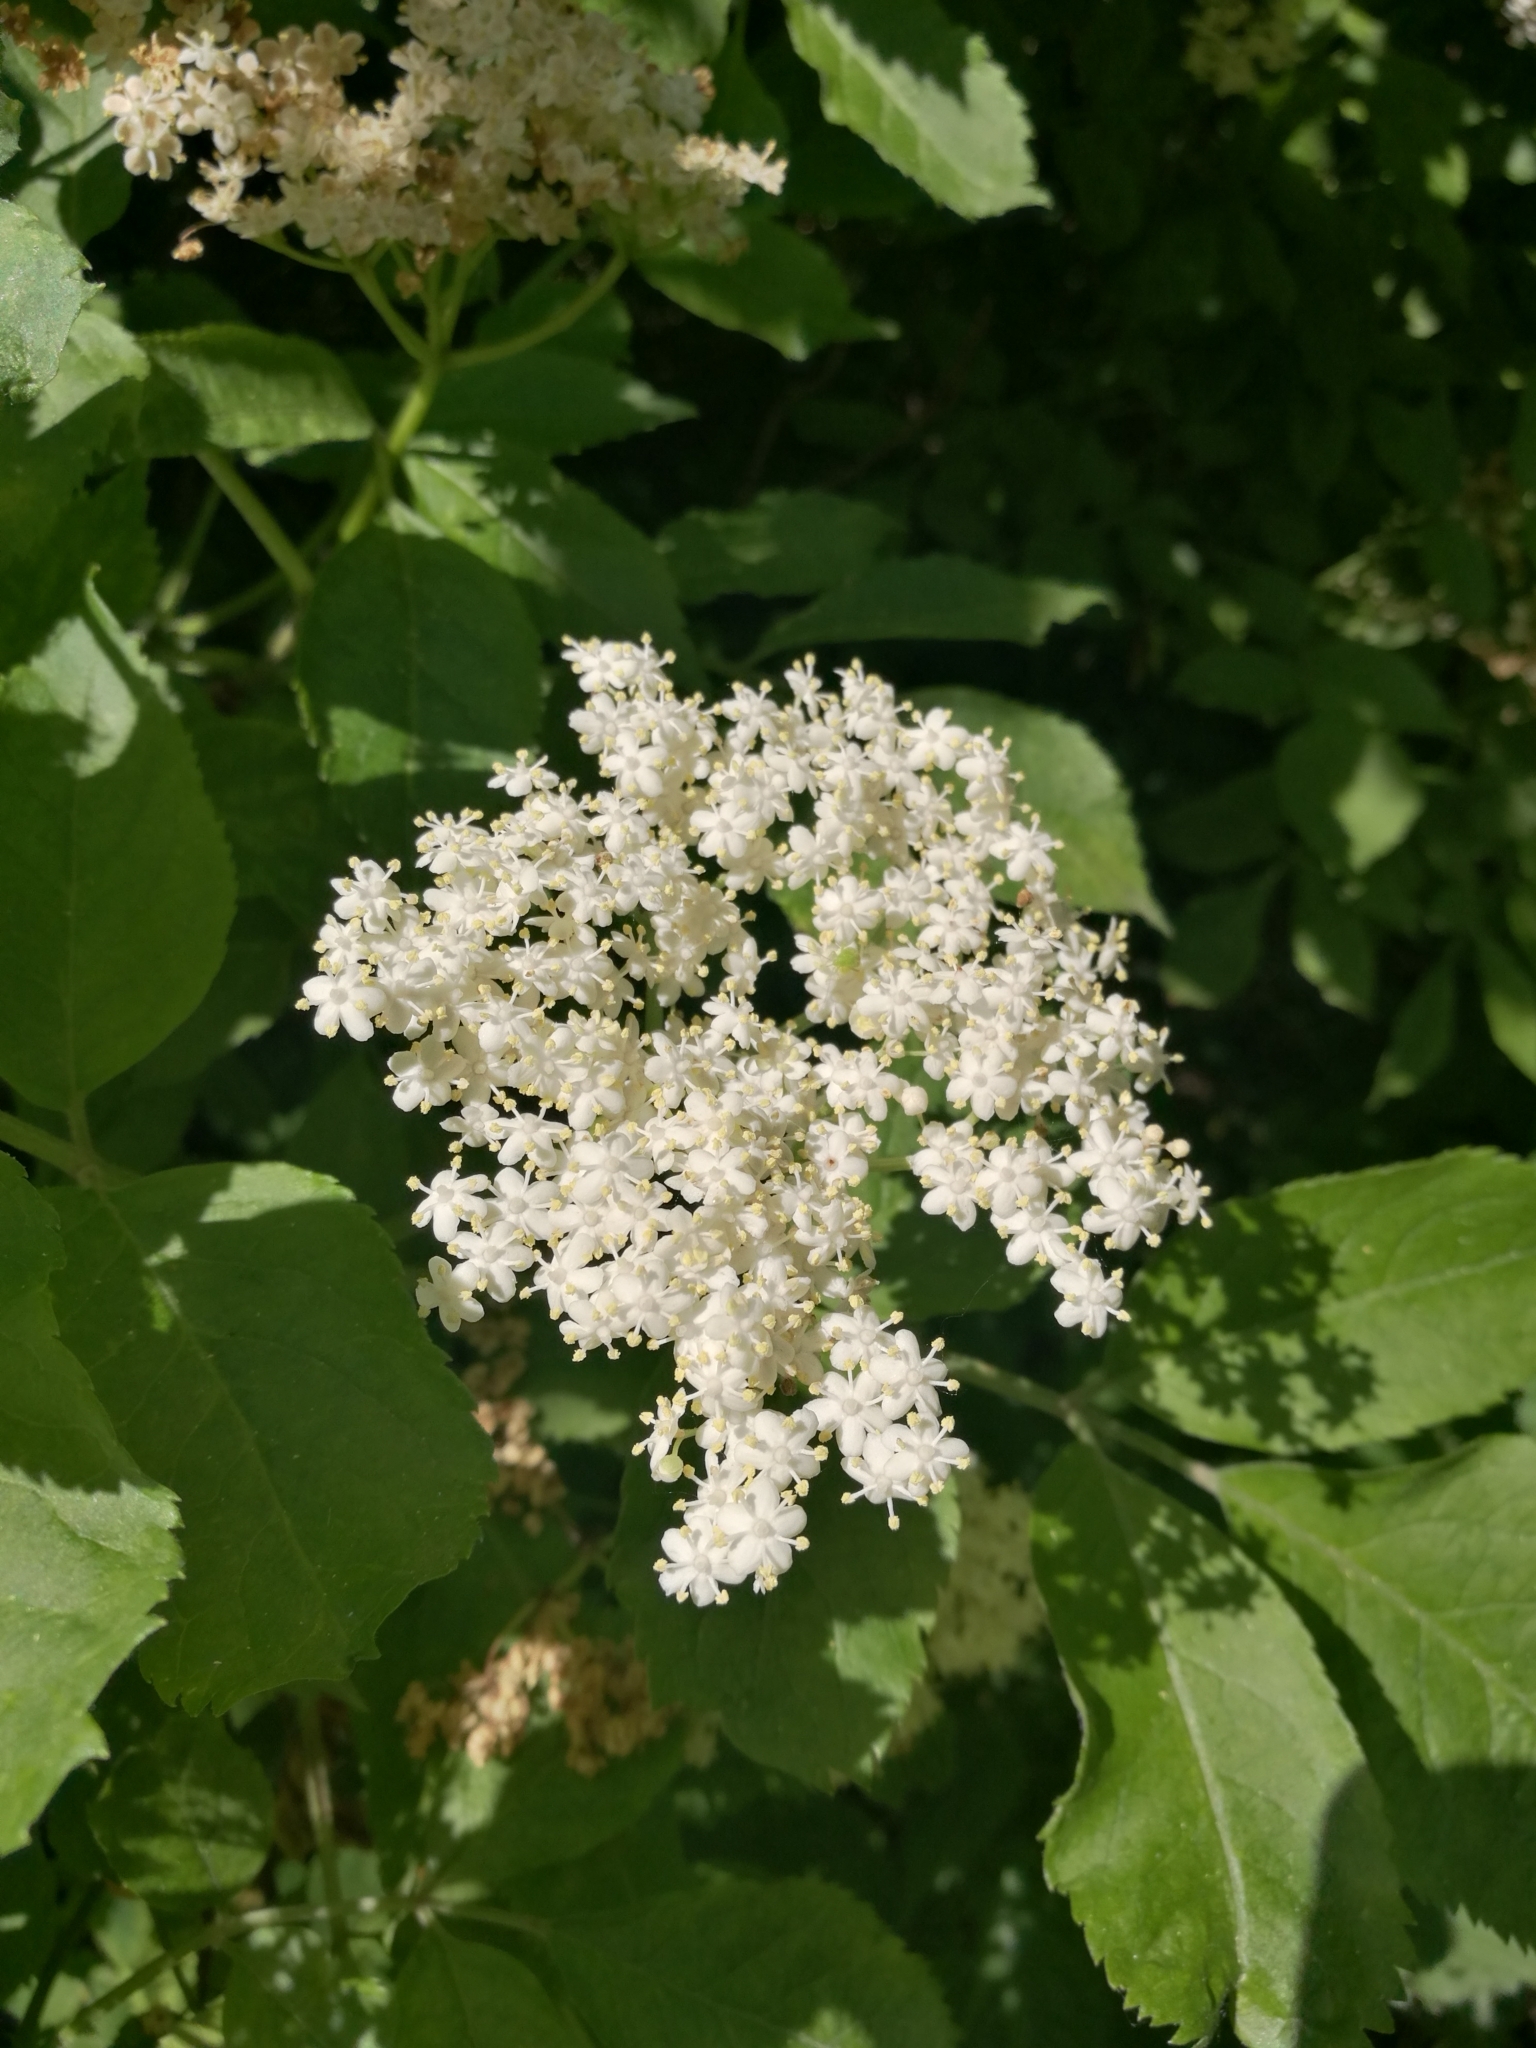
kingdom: Plantae
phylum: Tracheophyta
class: Magnoliopsida
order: Dipsacales
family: Viburnaceae
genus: Sambucus
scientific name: Sambucus nigra
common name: Elder
